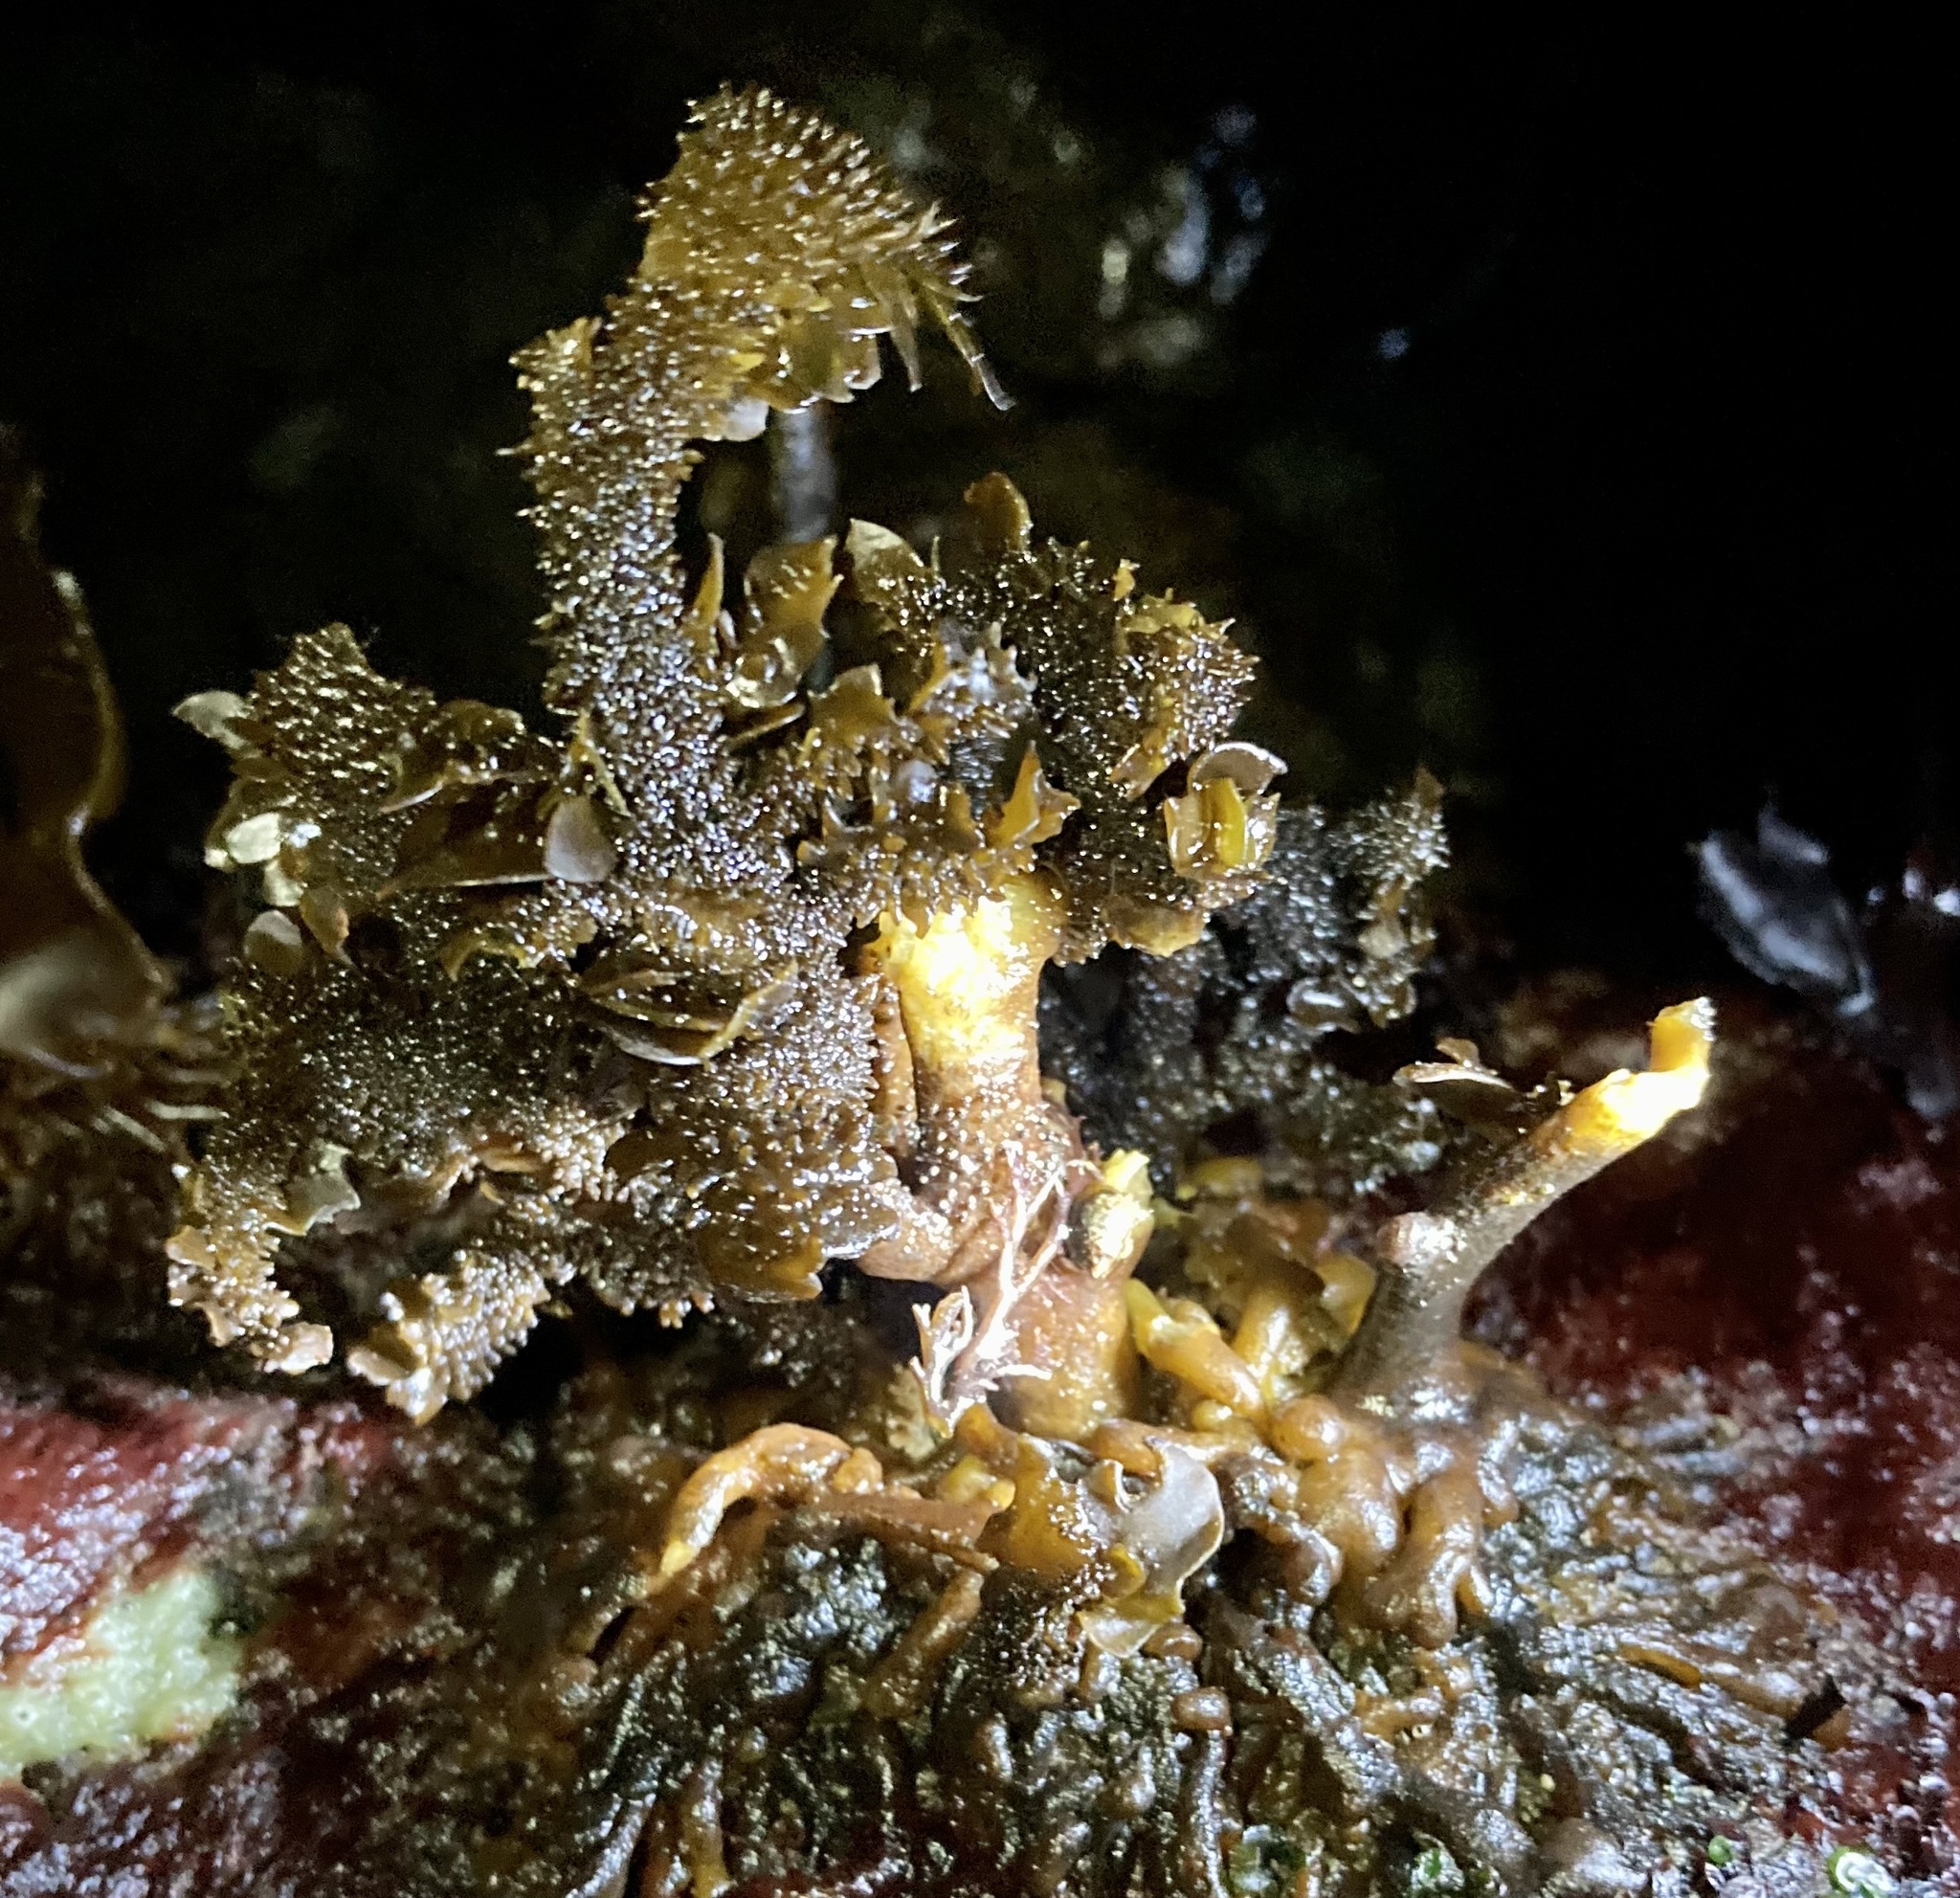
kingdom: Chromista
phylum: Ochrophyta
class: Phaeophyceae
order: Laminariales
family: Lessoniaceae
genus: Egregia
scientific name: Egregia menziesii
